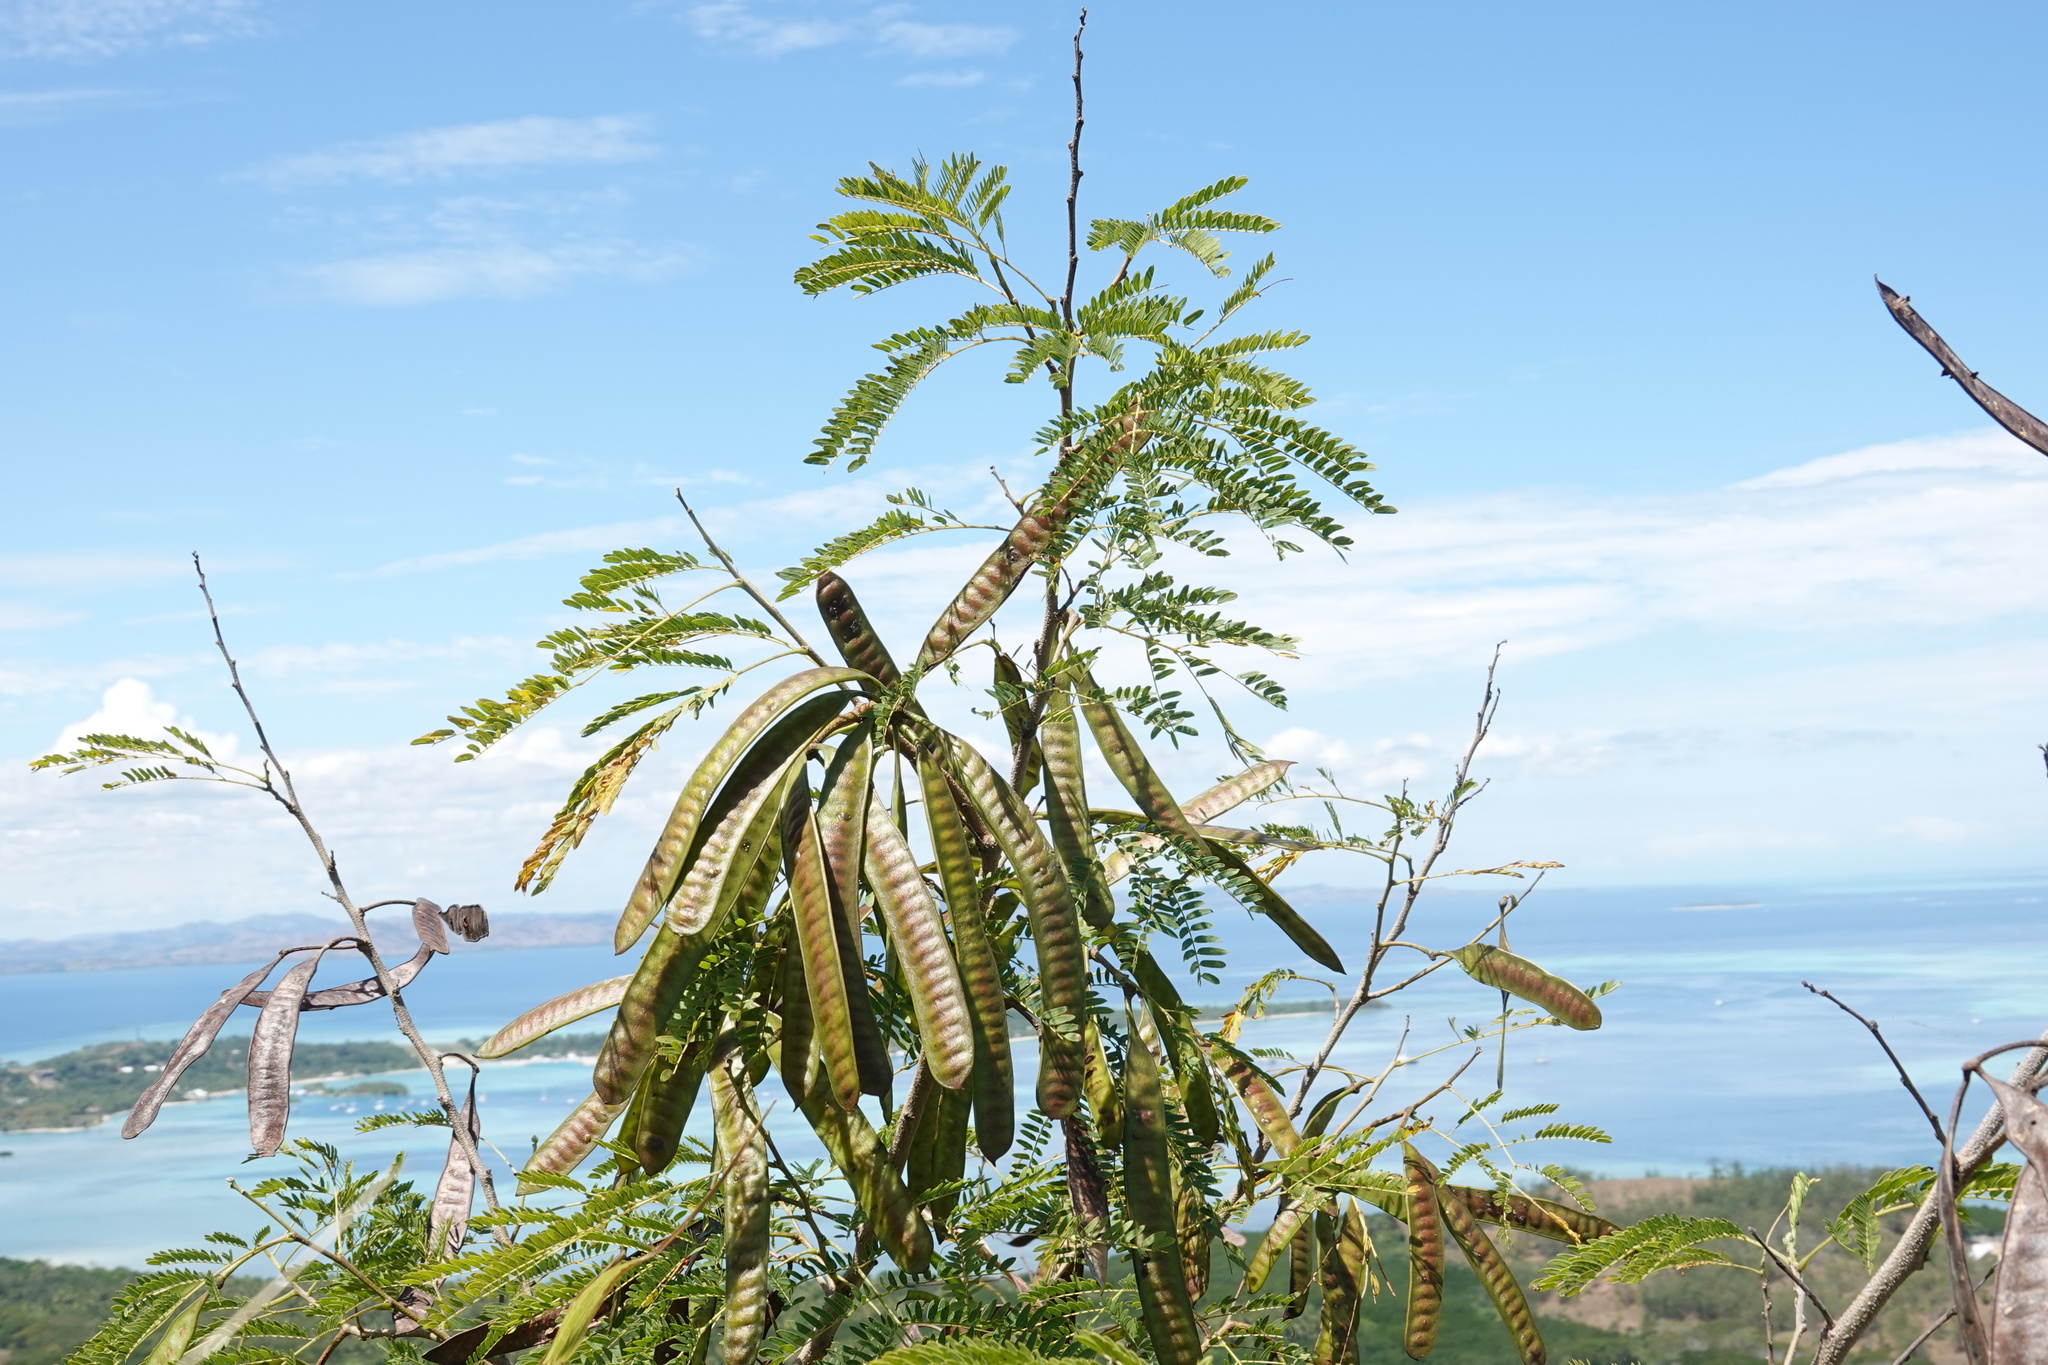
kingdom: Plantae
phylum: Tracheophyta
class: Magnoliopsida
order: Fabales
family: Fabaceae
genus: Leucaena
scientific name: Leucaena leucocephala
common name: White leadtree
